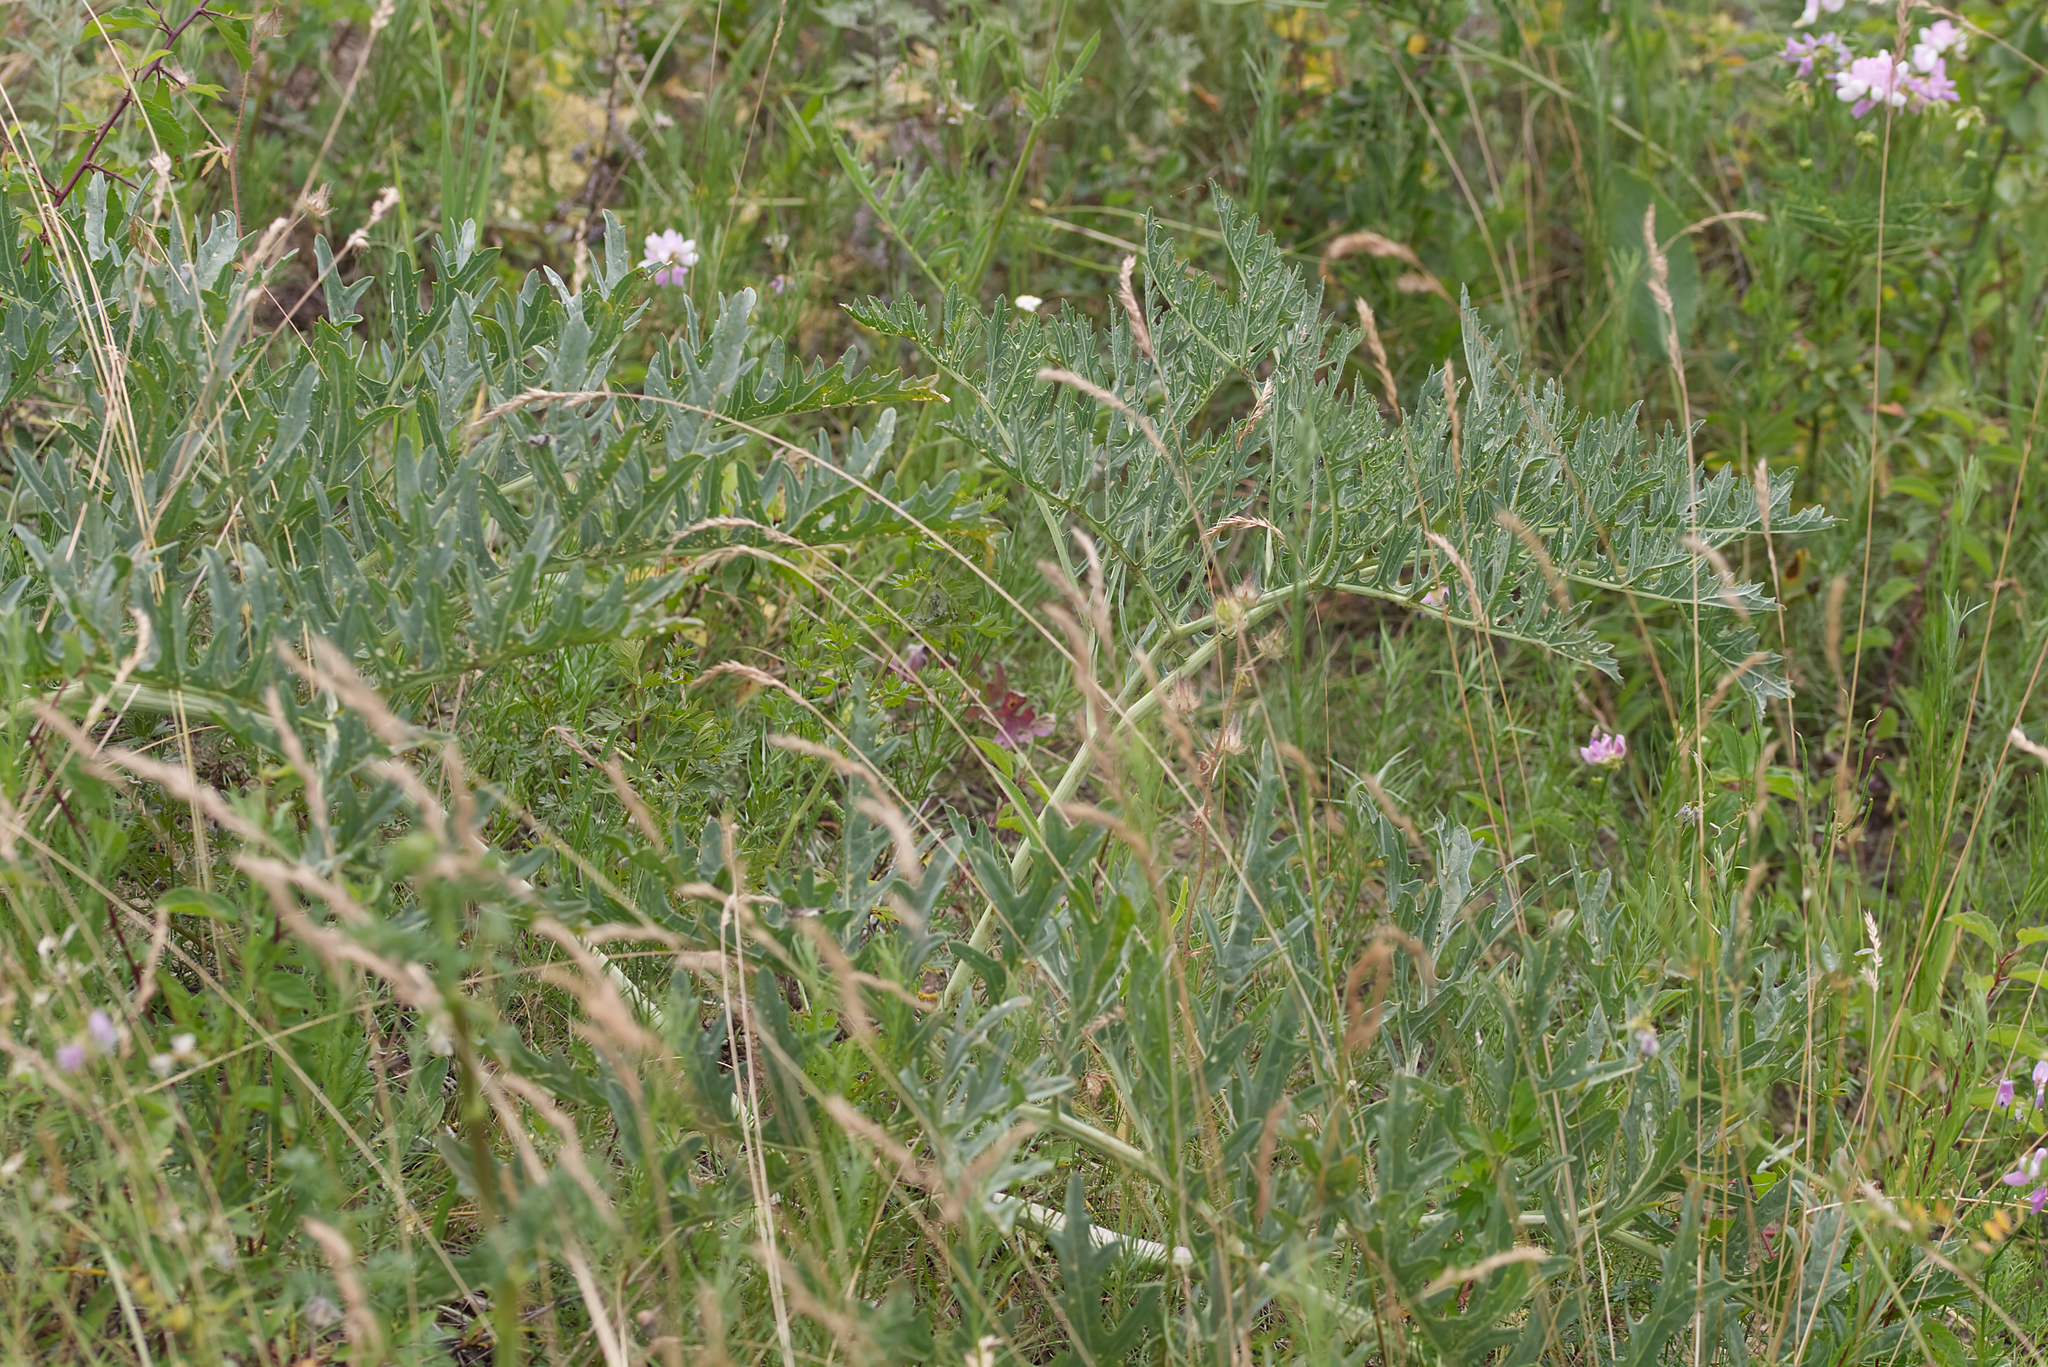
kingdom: Plantae
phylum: Tracheophyta
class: Magnoliopsida
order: Brassicales
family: Brassicaceae
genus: Crambe
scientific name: Crambe tataria
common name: Tartarian breadplant
